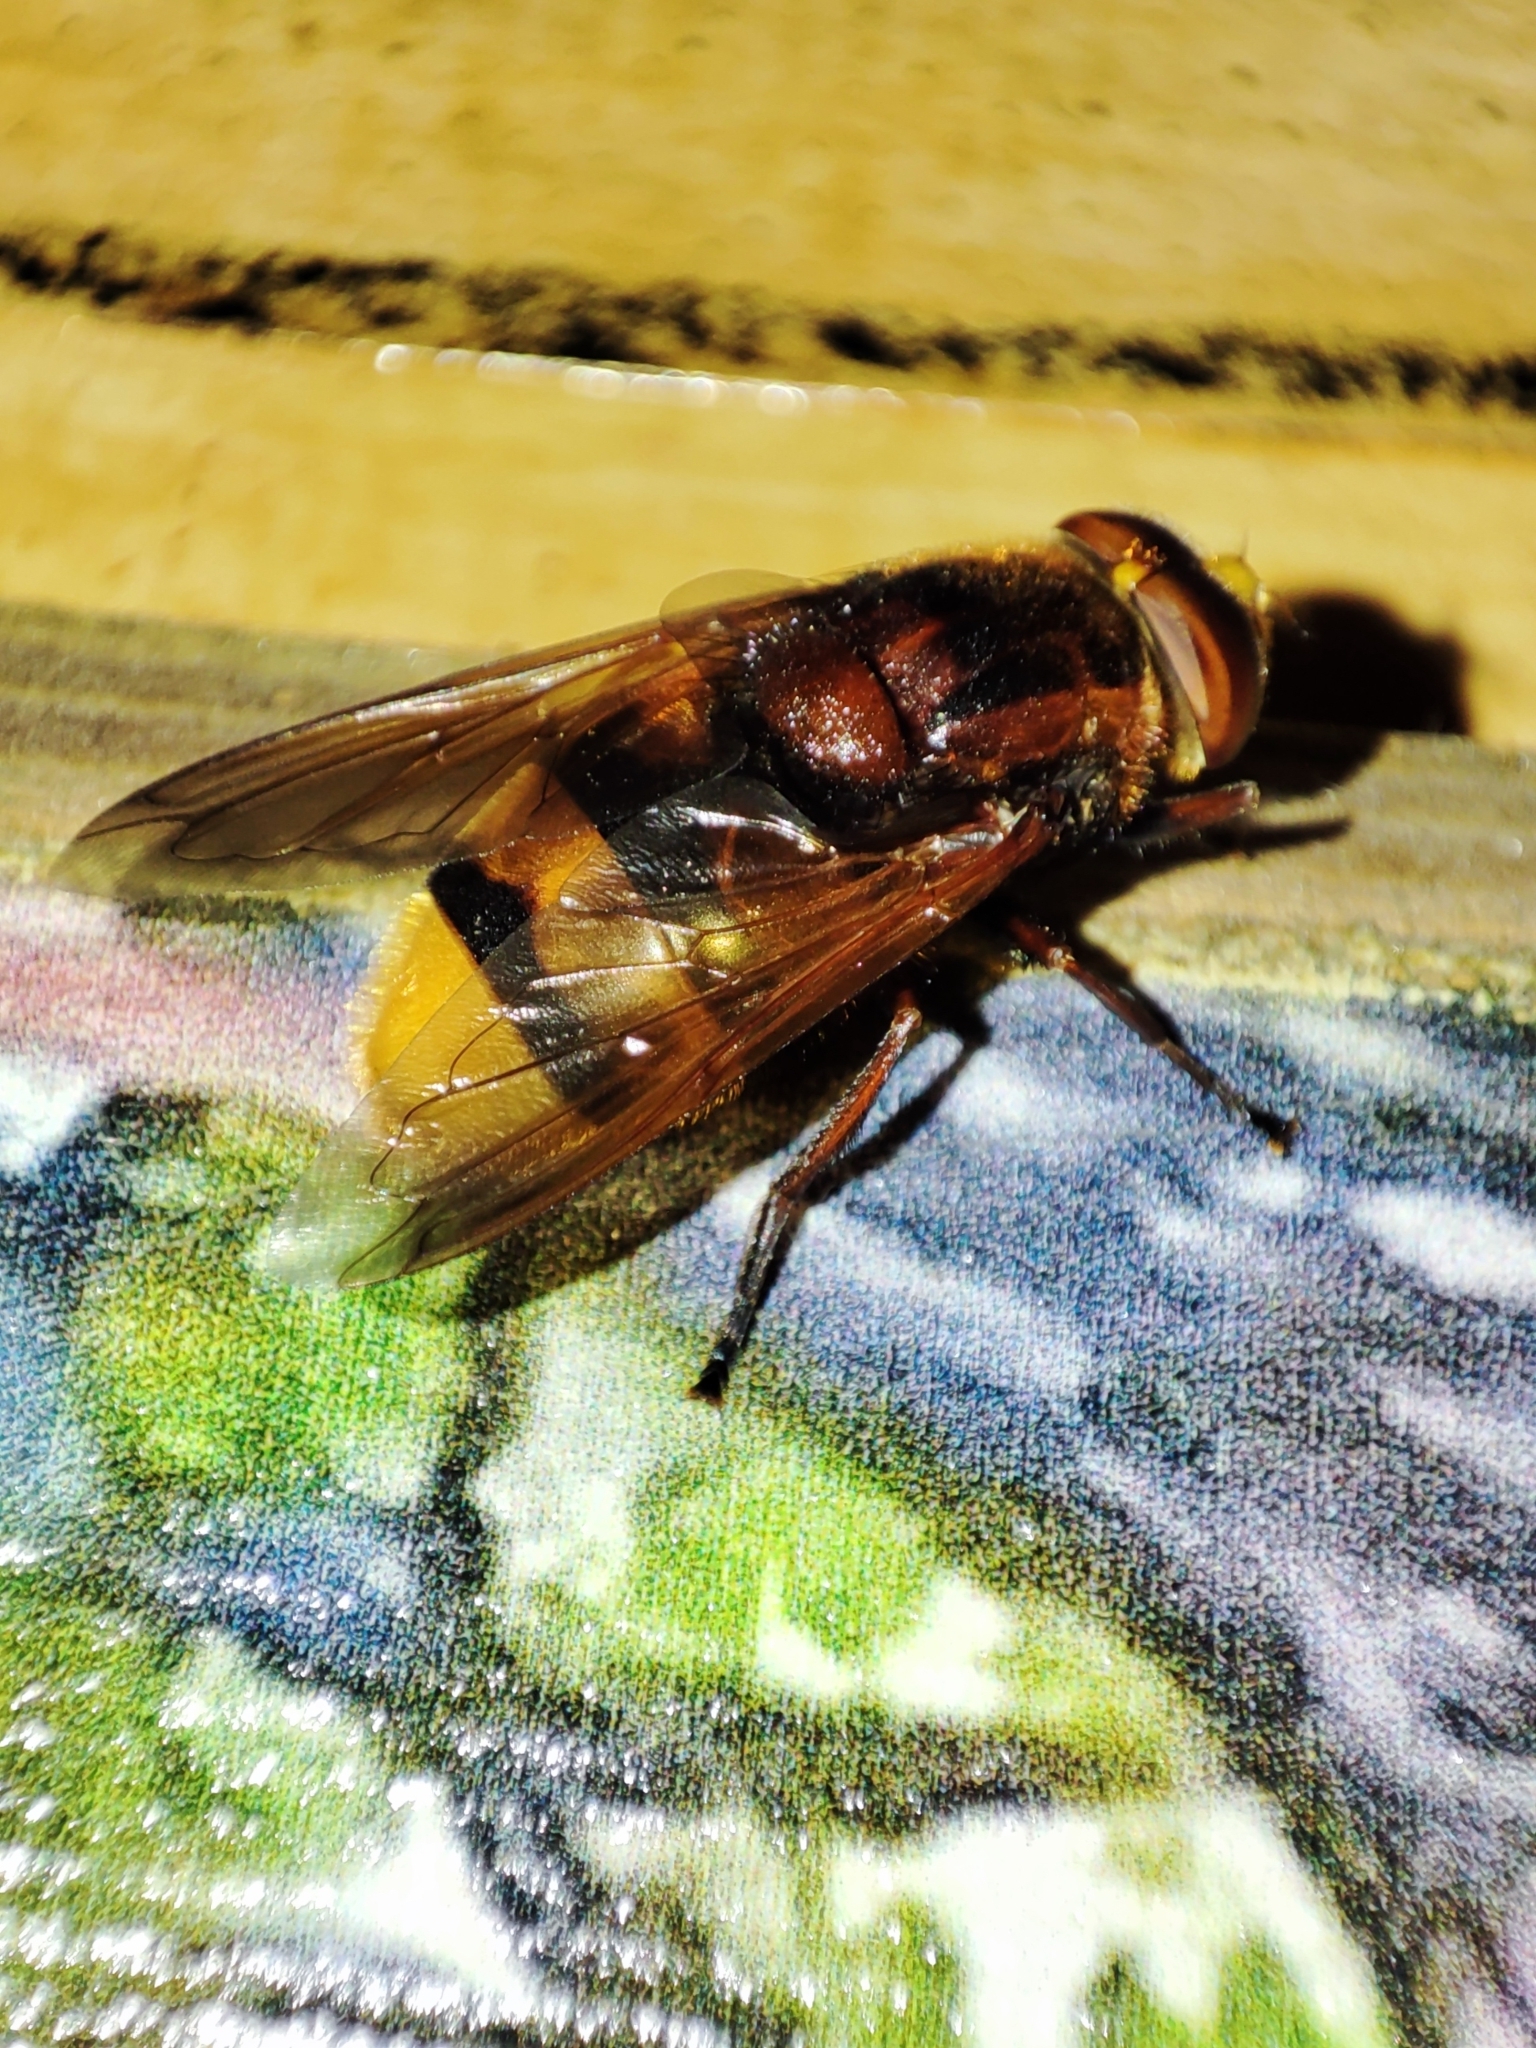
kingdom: Animalia
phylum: Arthropoda
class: Insecta
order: Diptera
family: Syrphidae
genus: Volucella
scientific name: Volucella zonaria
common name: Hornet hoverfly
